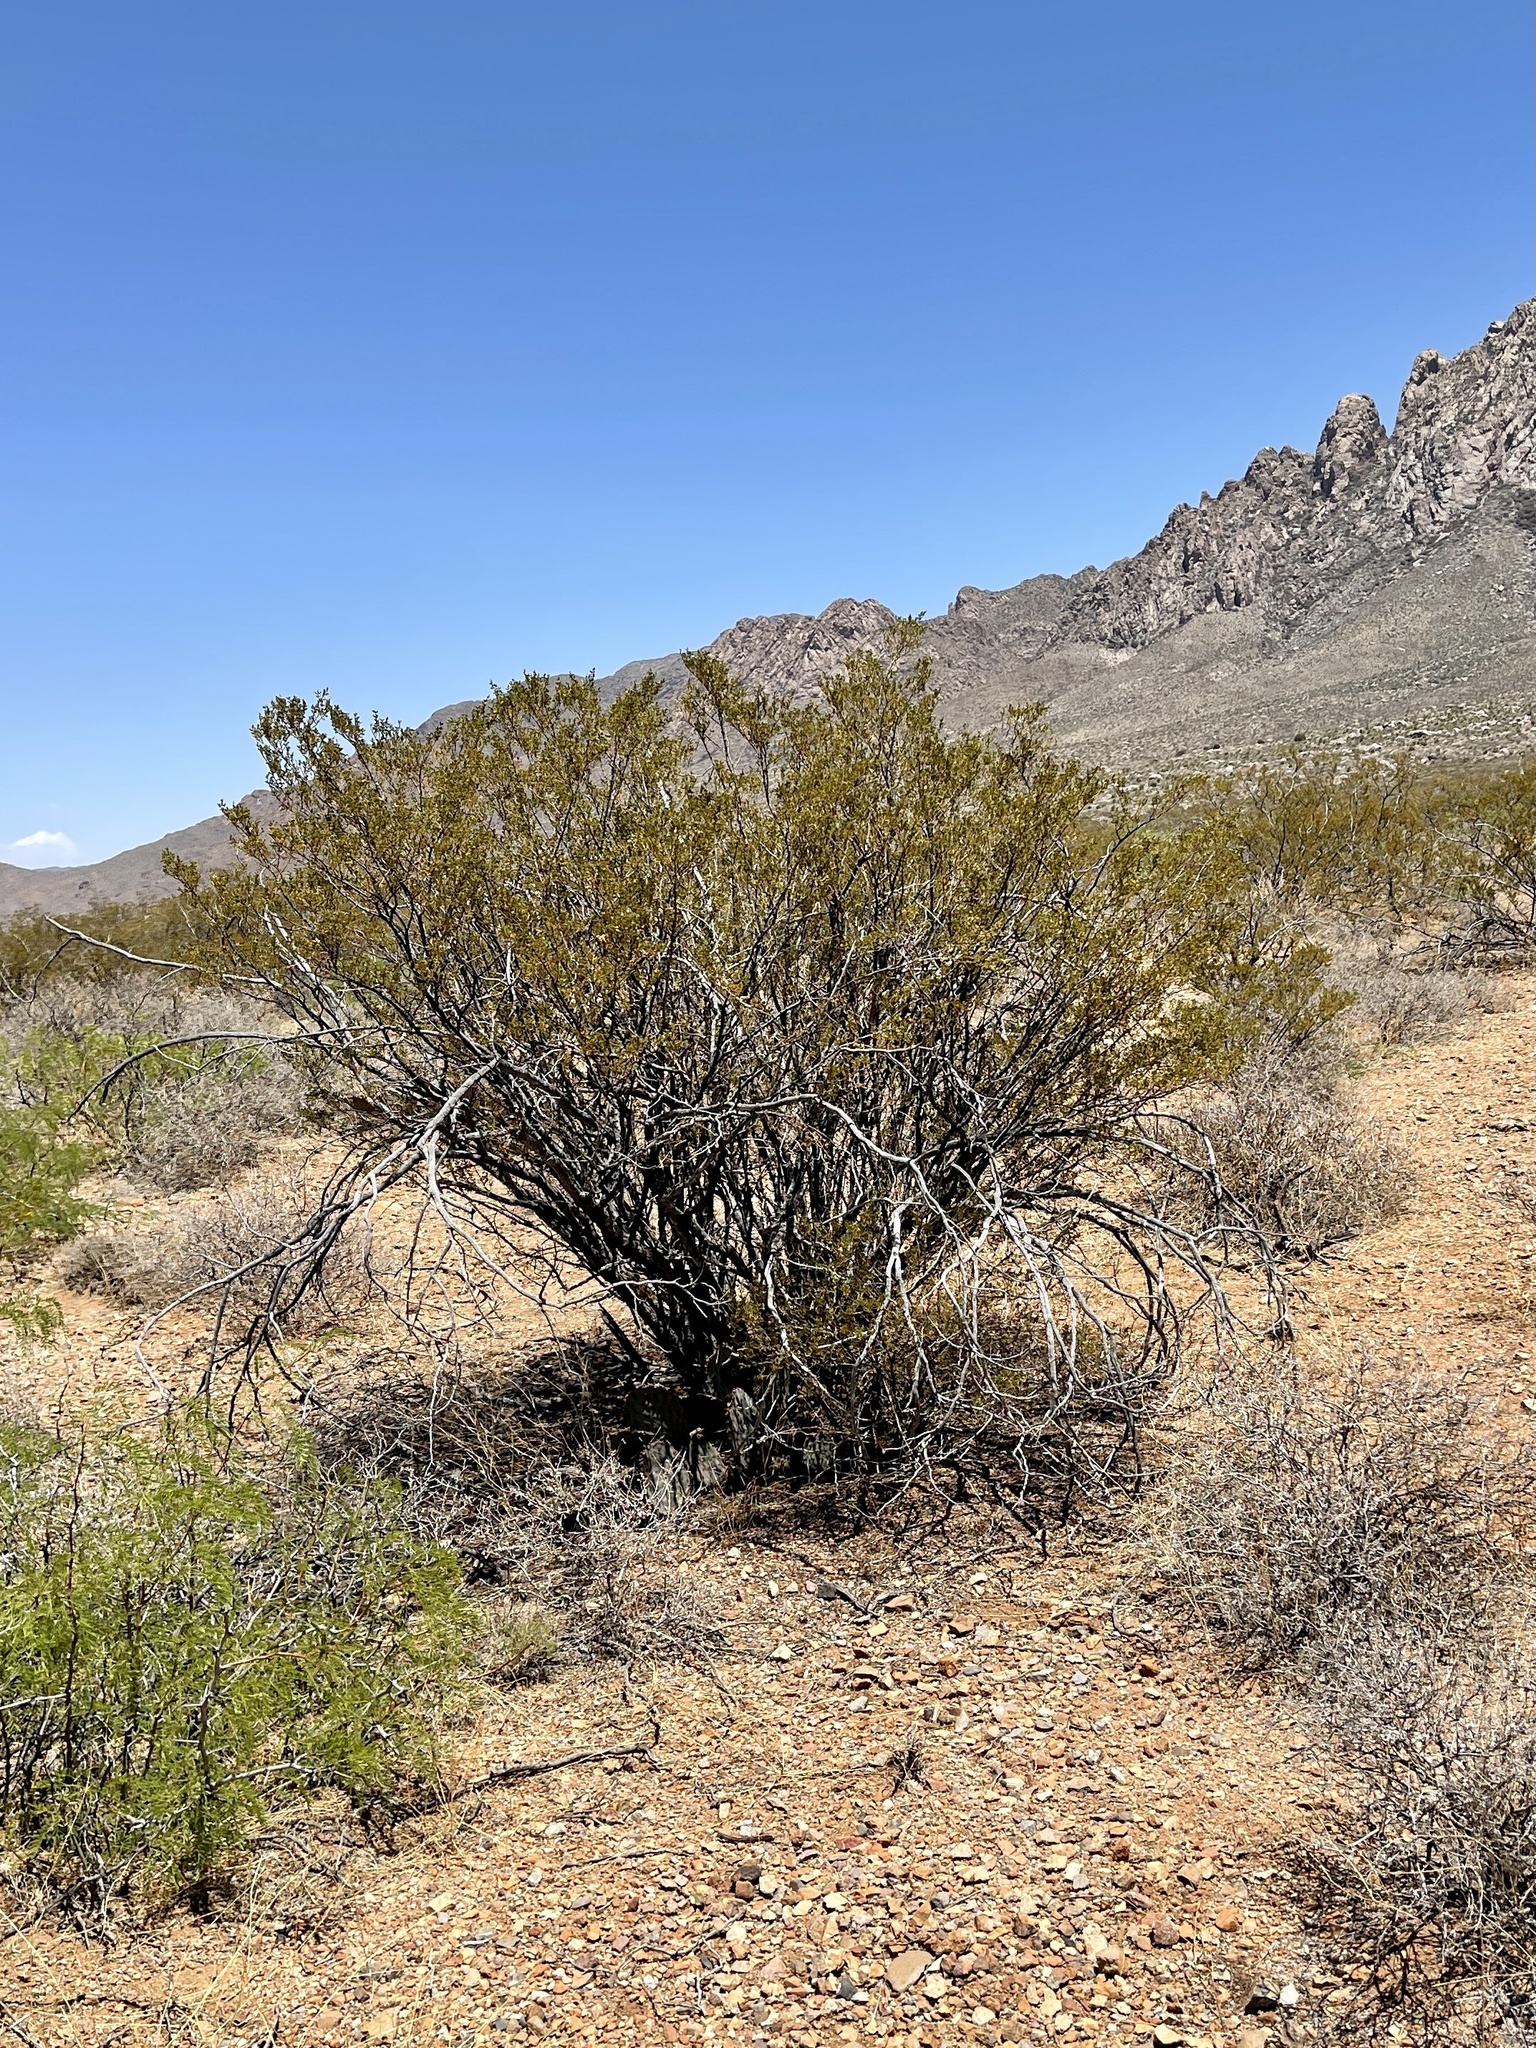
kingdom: Plantae
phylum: Tracheophyta
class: Magnoliopsida
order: Zygophyllales
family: Zygophyllaceae
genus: Larrea
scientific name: Larrea tridentata
